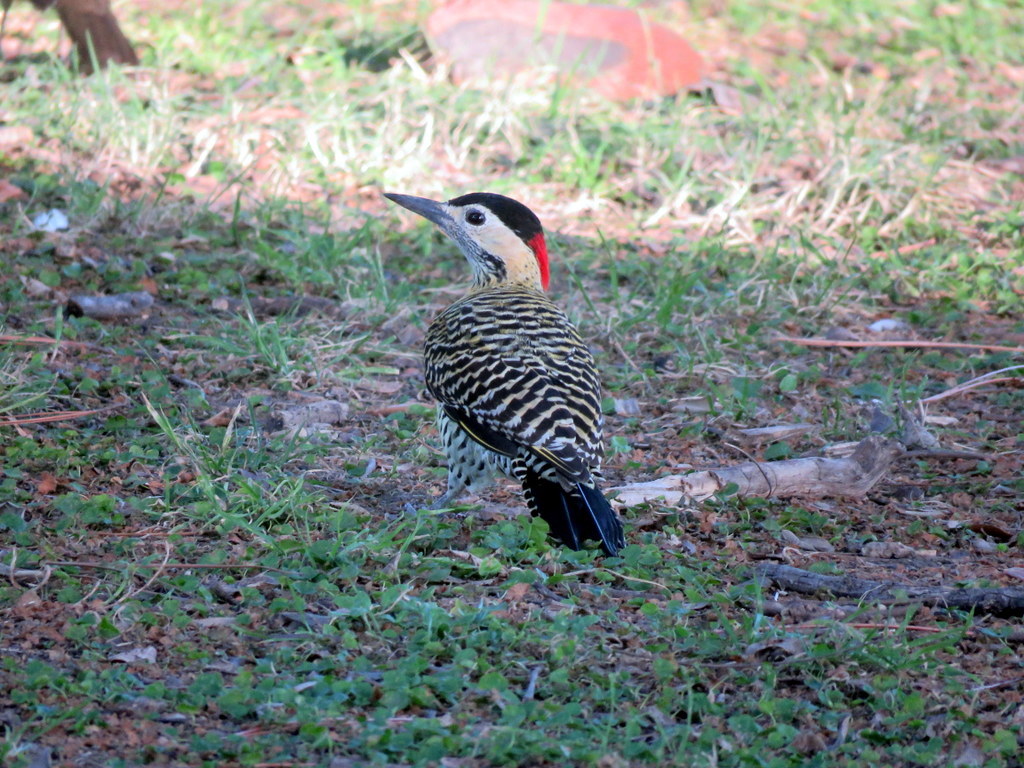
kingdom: Animalia
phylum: Chordata
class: Aves
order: Piciformes
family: Picidae
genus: Colaptes
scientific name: Colaptes melanochloros
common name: Green-barred woodpecker
